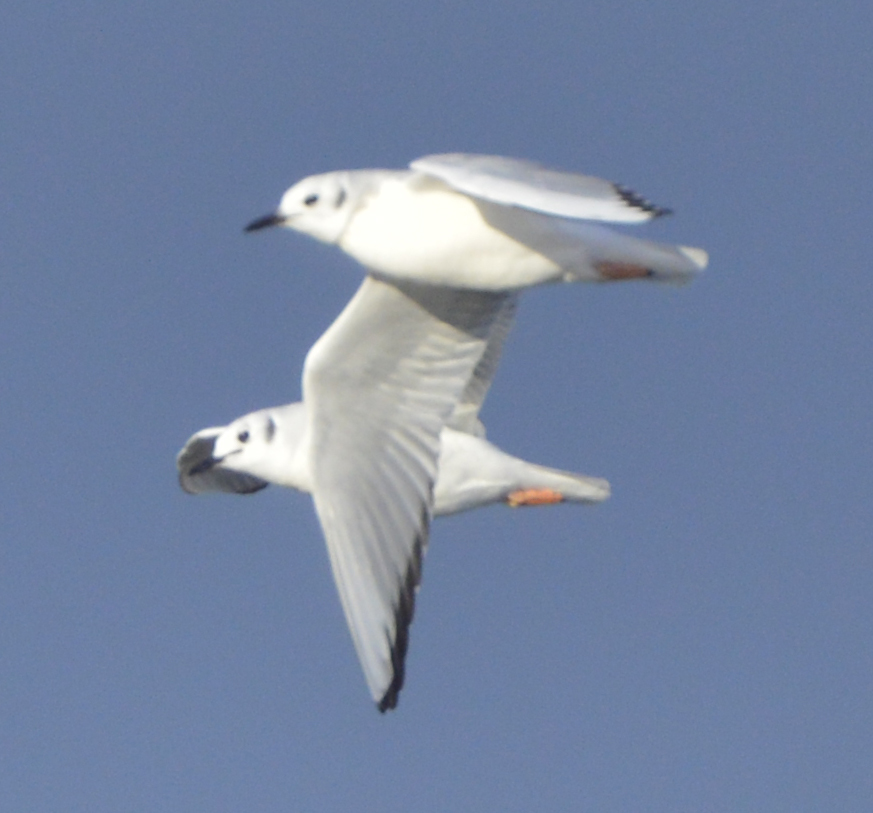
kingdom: Animalia
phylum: Chordata
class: Aves
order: Charadriiformes
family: Laridae
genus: Chroicocephalus
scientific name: Chroicocephalus philadelphia
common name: Bonaparte's gull
